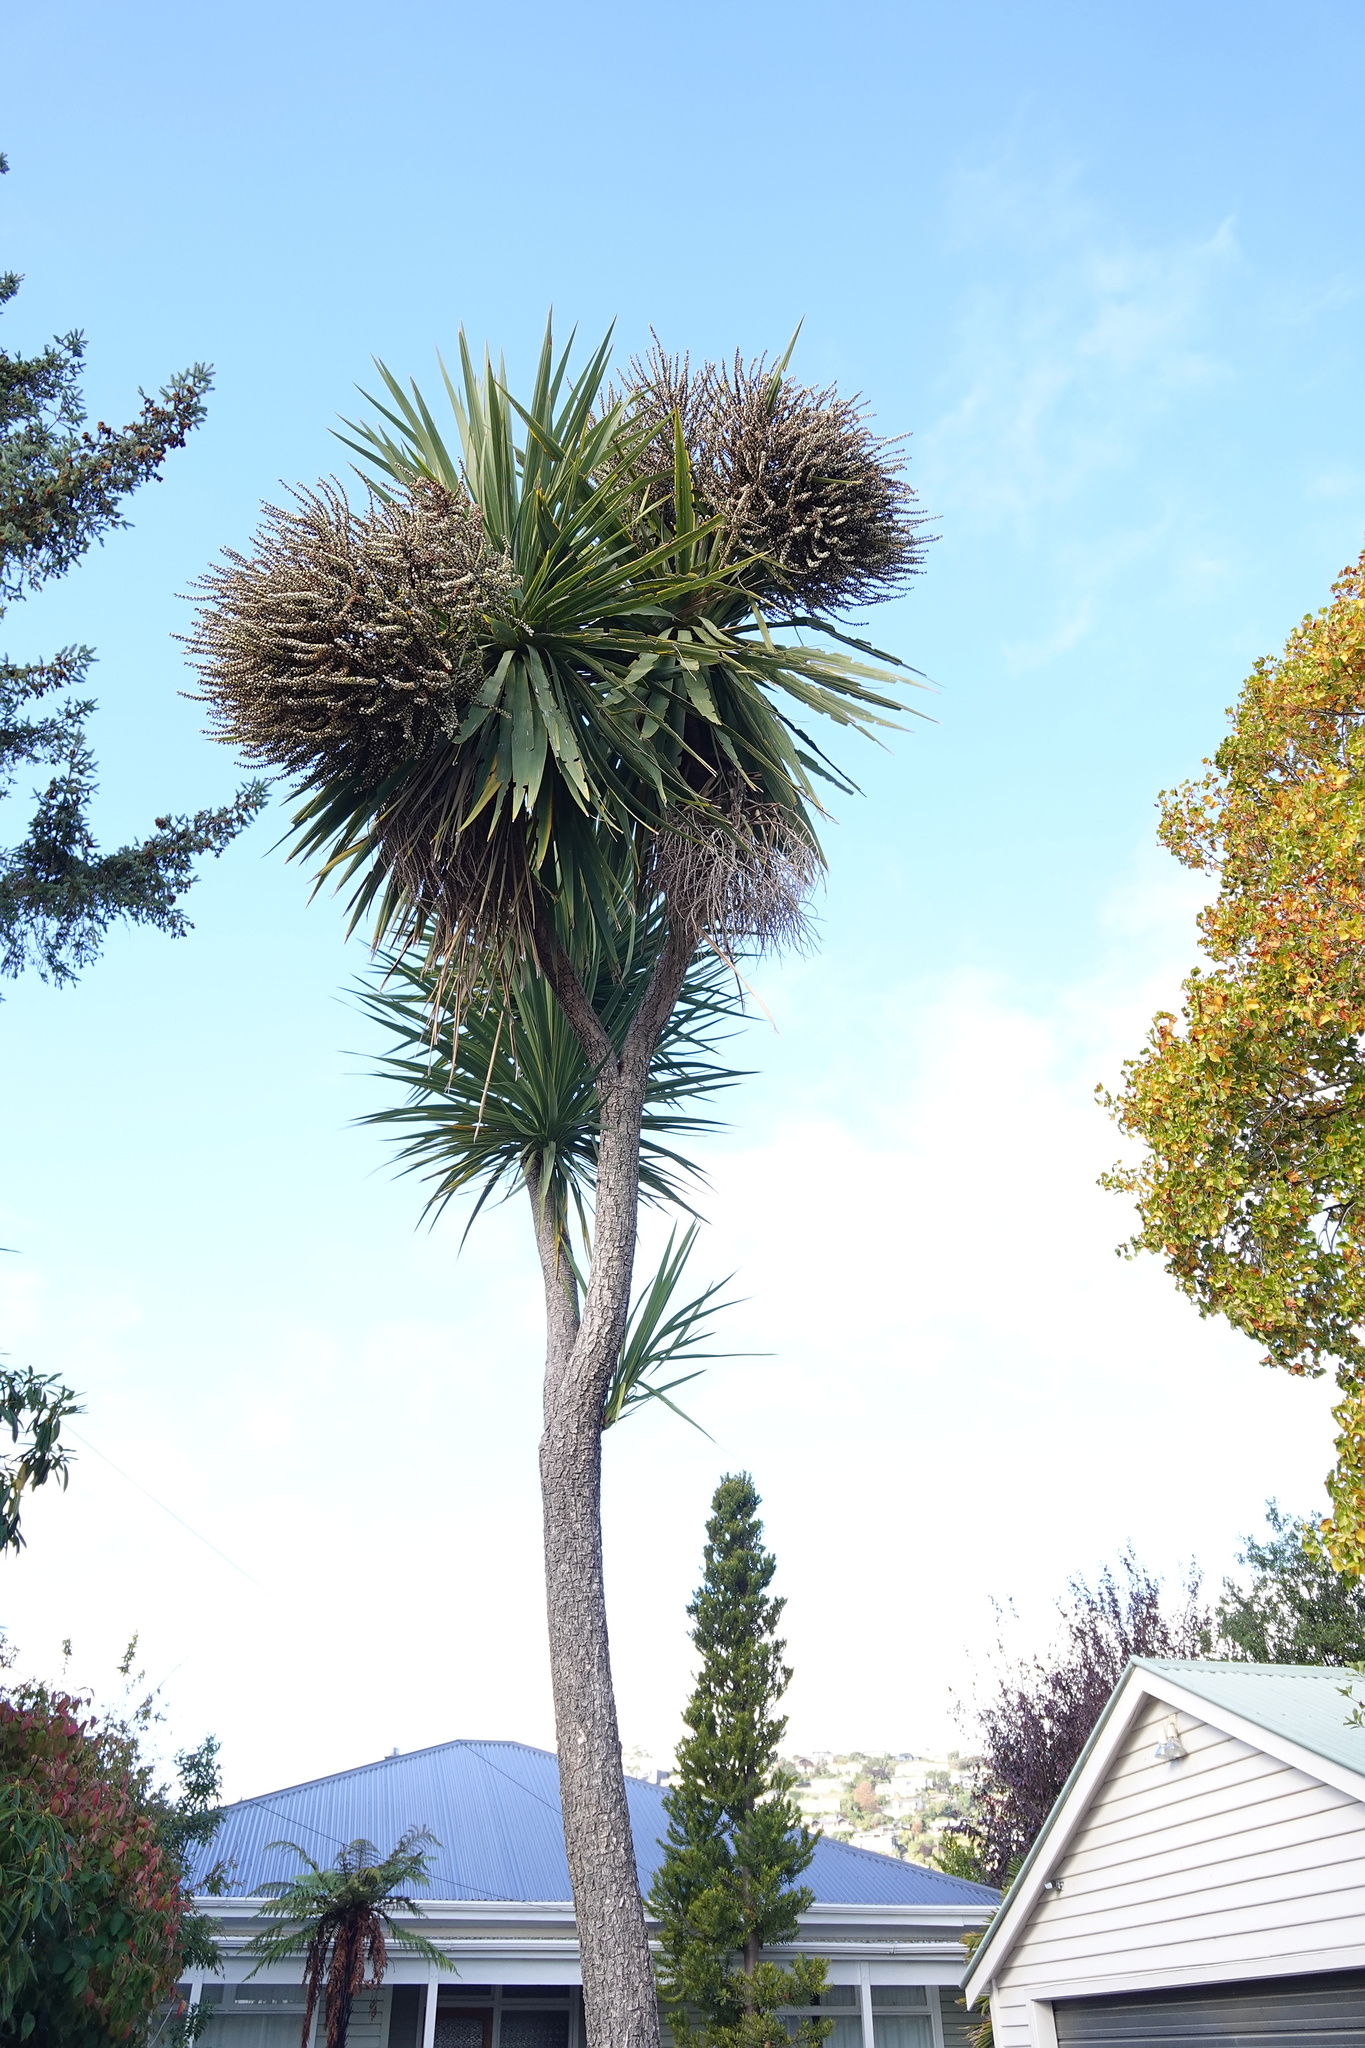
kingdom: Plantae
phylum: Tracheophyta
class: Liliopsida
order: Asparagales
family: Asparagaceae
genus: Cordyline
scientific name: Cordyline australis
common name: Cabbage-palm
